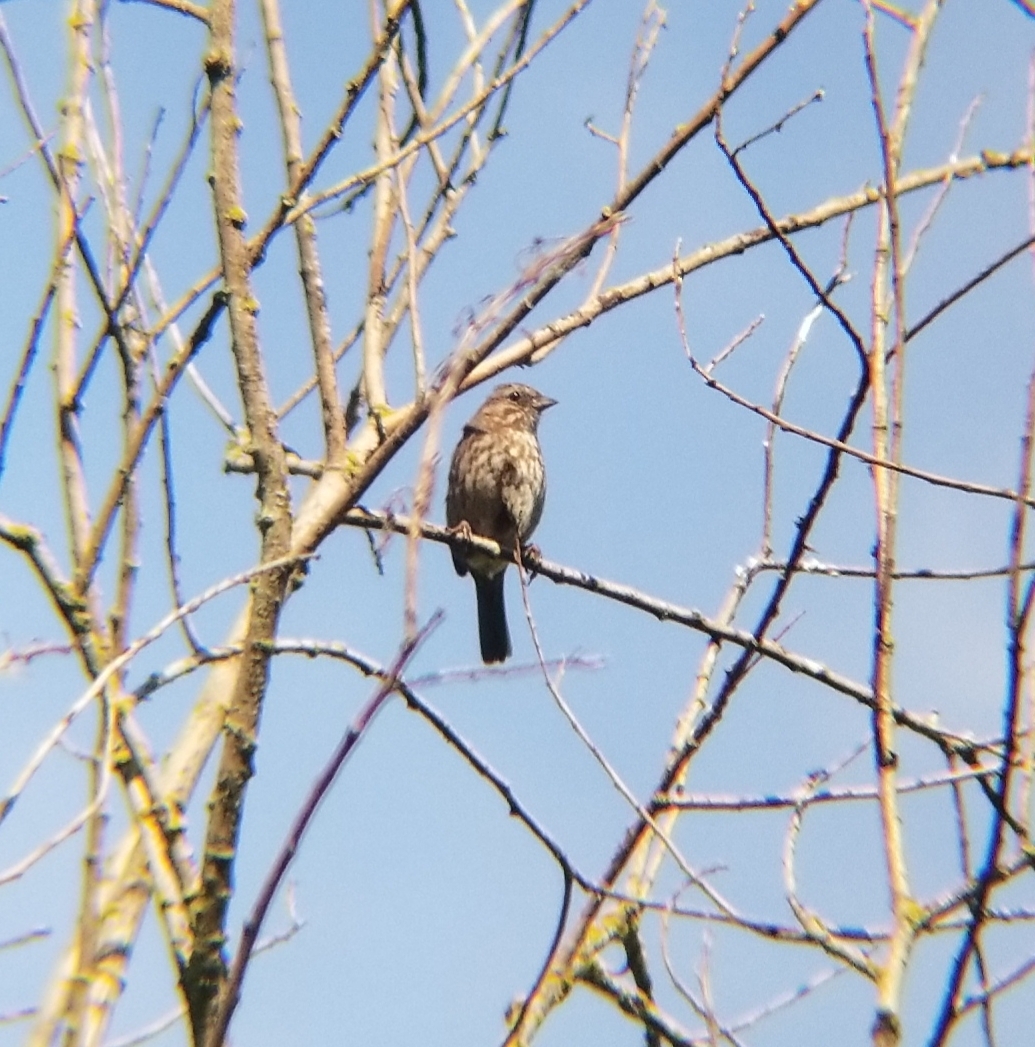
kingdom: Animalia
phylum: Chordata
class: Aves
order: Passeriformes
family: Passerellidae
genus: Melospiza
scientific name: Melospiza melodia
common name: Song sparrow
